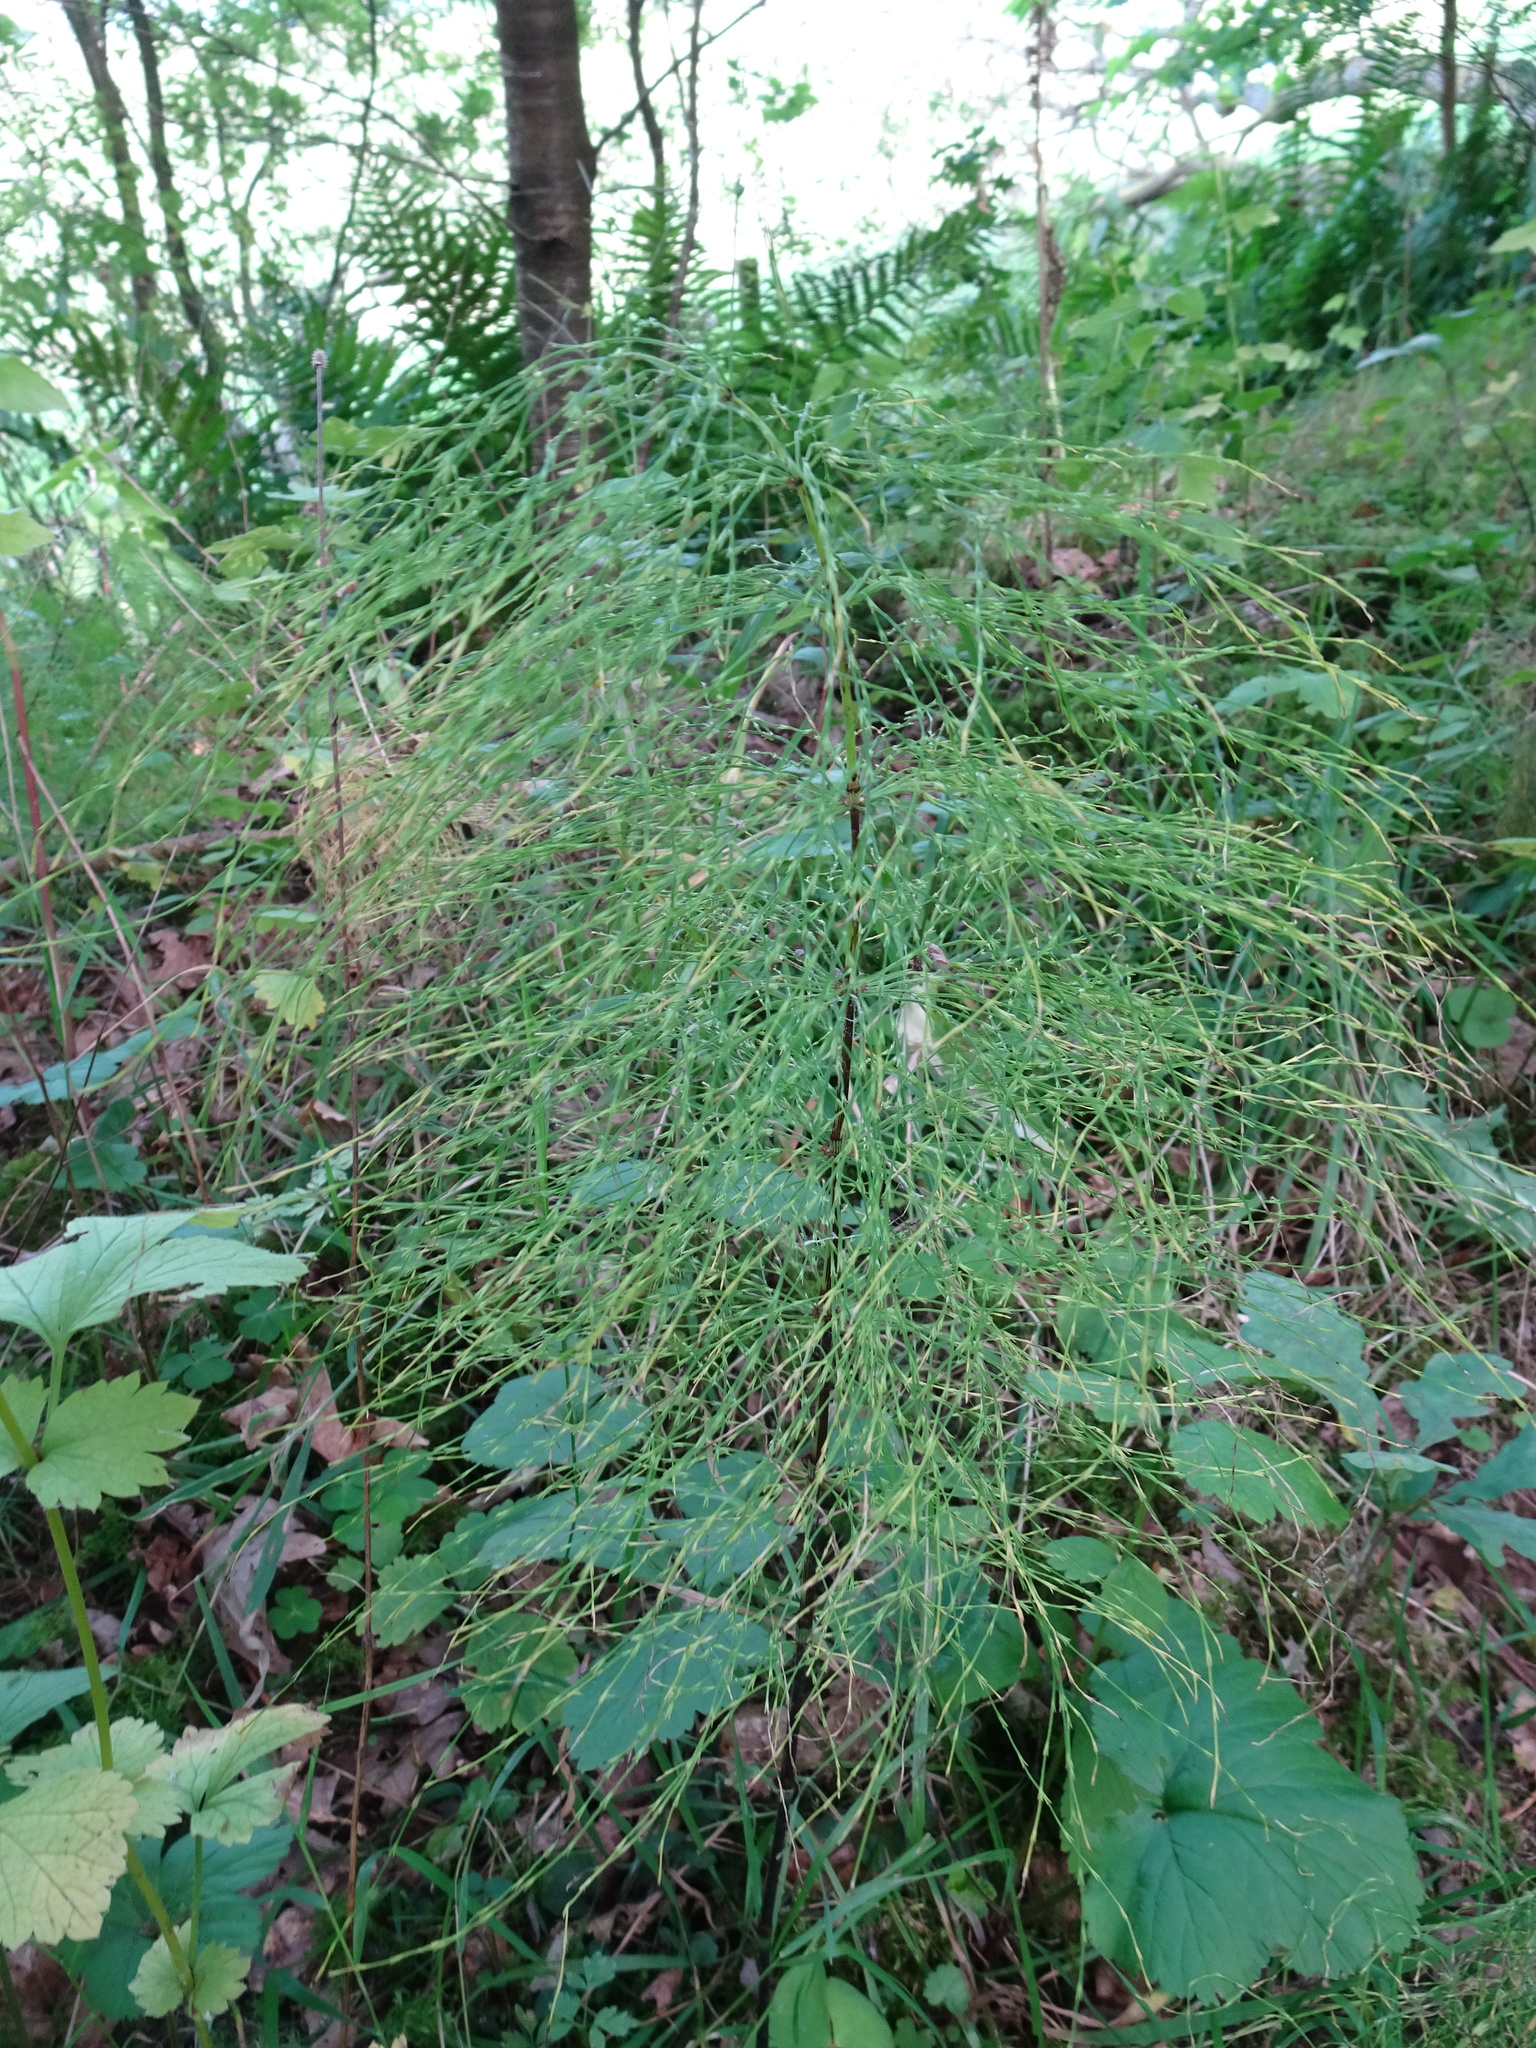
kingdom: Plantae
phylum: Tracheophyta
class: Polypodiopsida
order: Equisetales
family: Equisetaceae
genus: Equisetum
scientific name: Equisetum sylvaticum
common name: Wood horsetail
